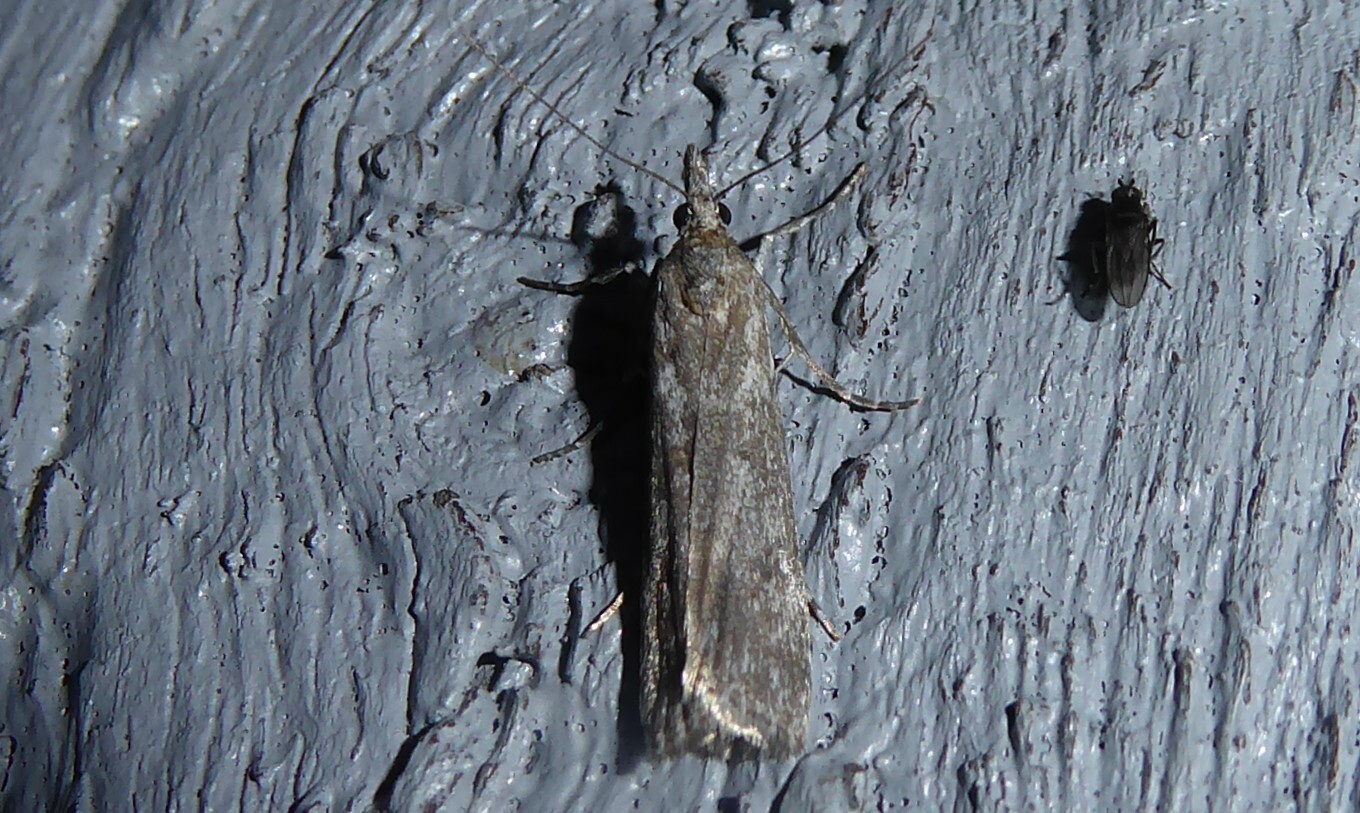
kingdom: Animalia
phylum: Arthropoda
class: Insecta
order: Lepidoptera
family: Crambidae
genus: Eudonia
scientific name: Eudonia leptalea
